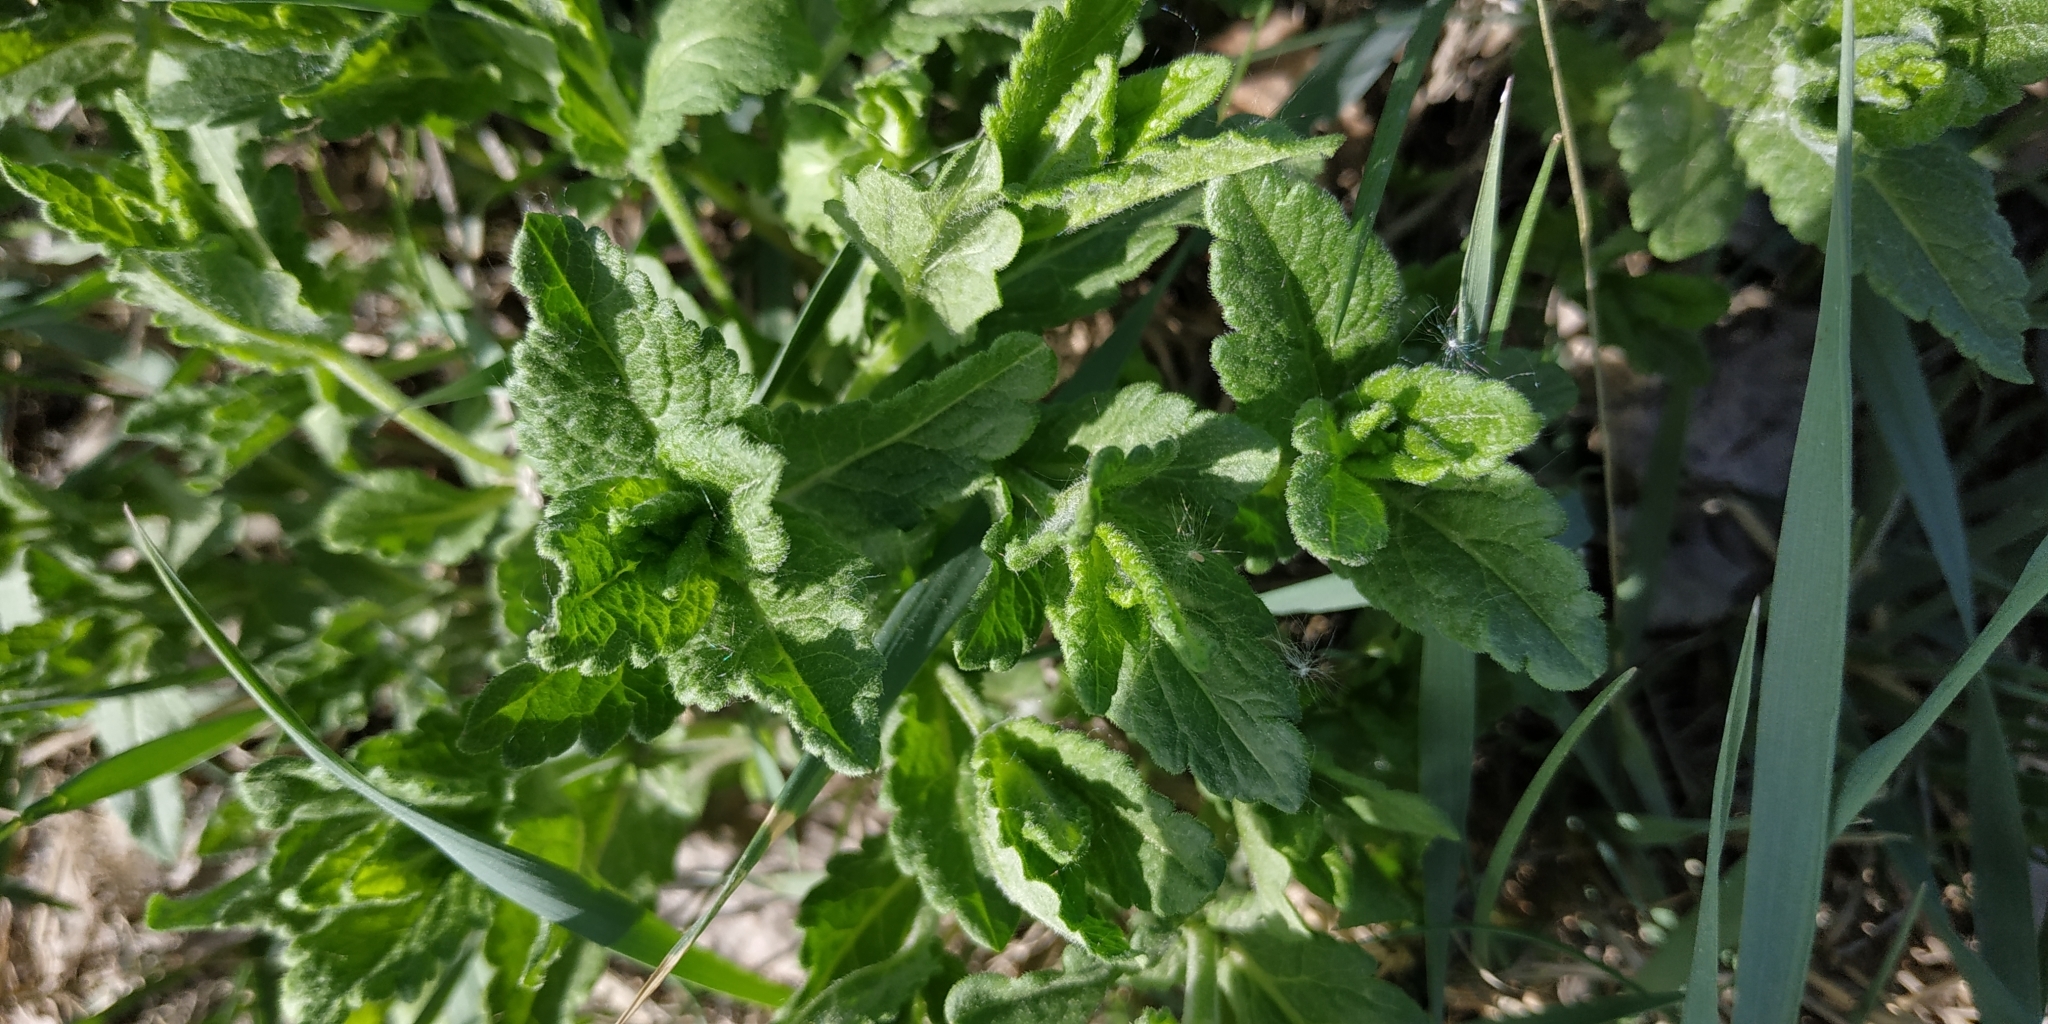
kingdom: Plantae
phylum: Tracheophyta
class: Magnoliopsida
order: Lamiales
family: Plantaginaceae
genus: Veronica
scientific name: Veronica teucrium
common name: Large speedwell
